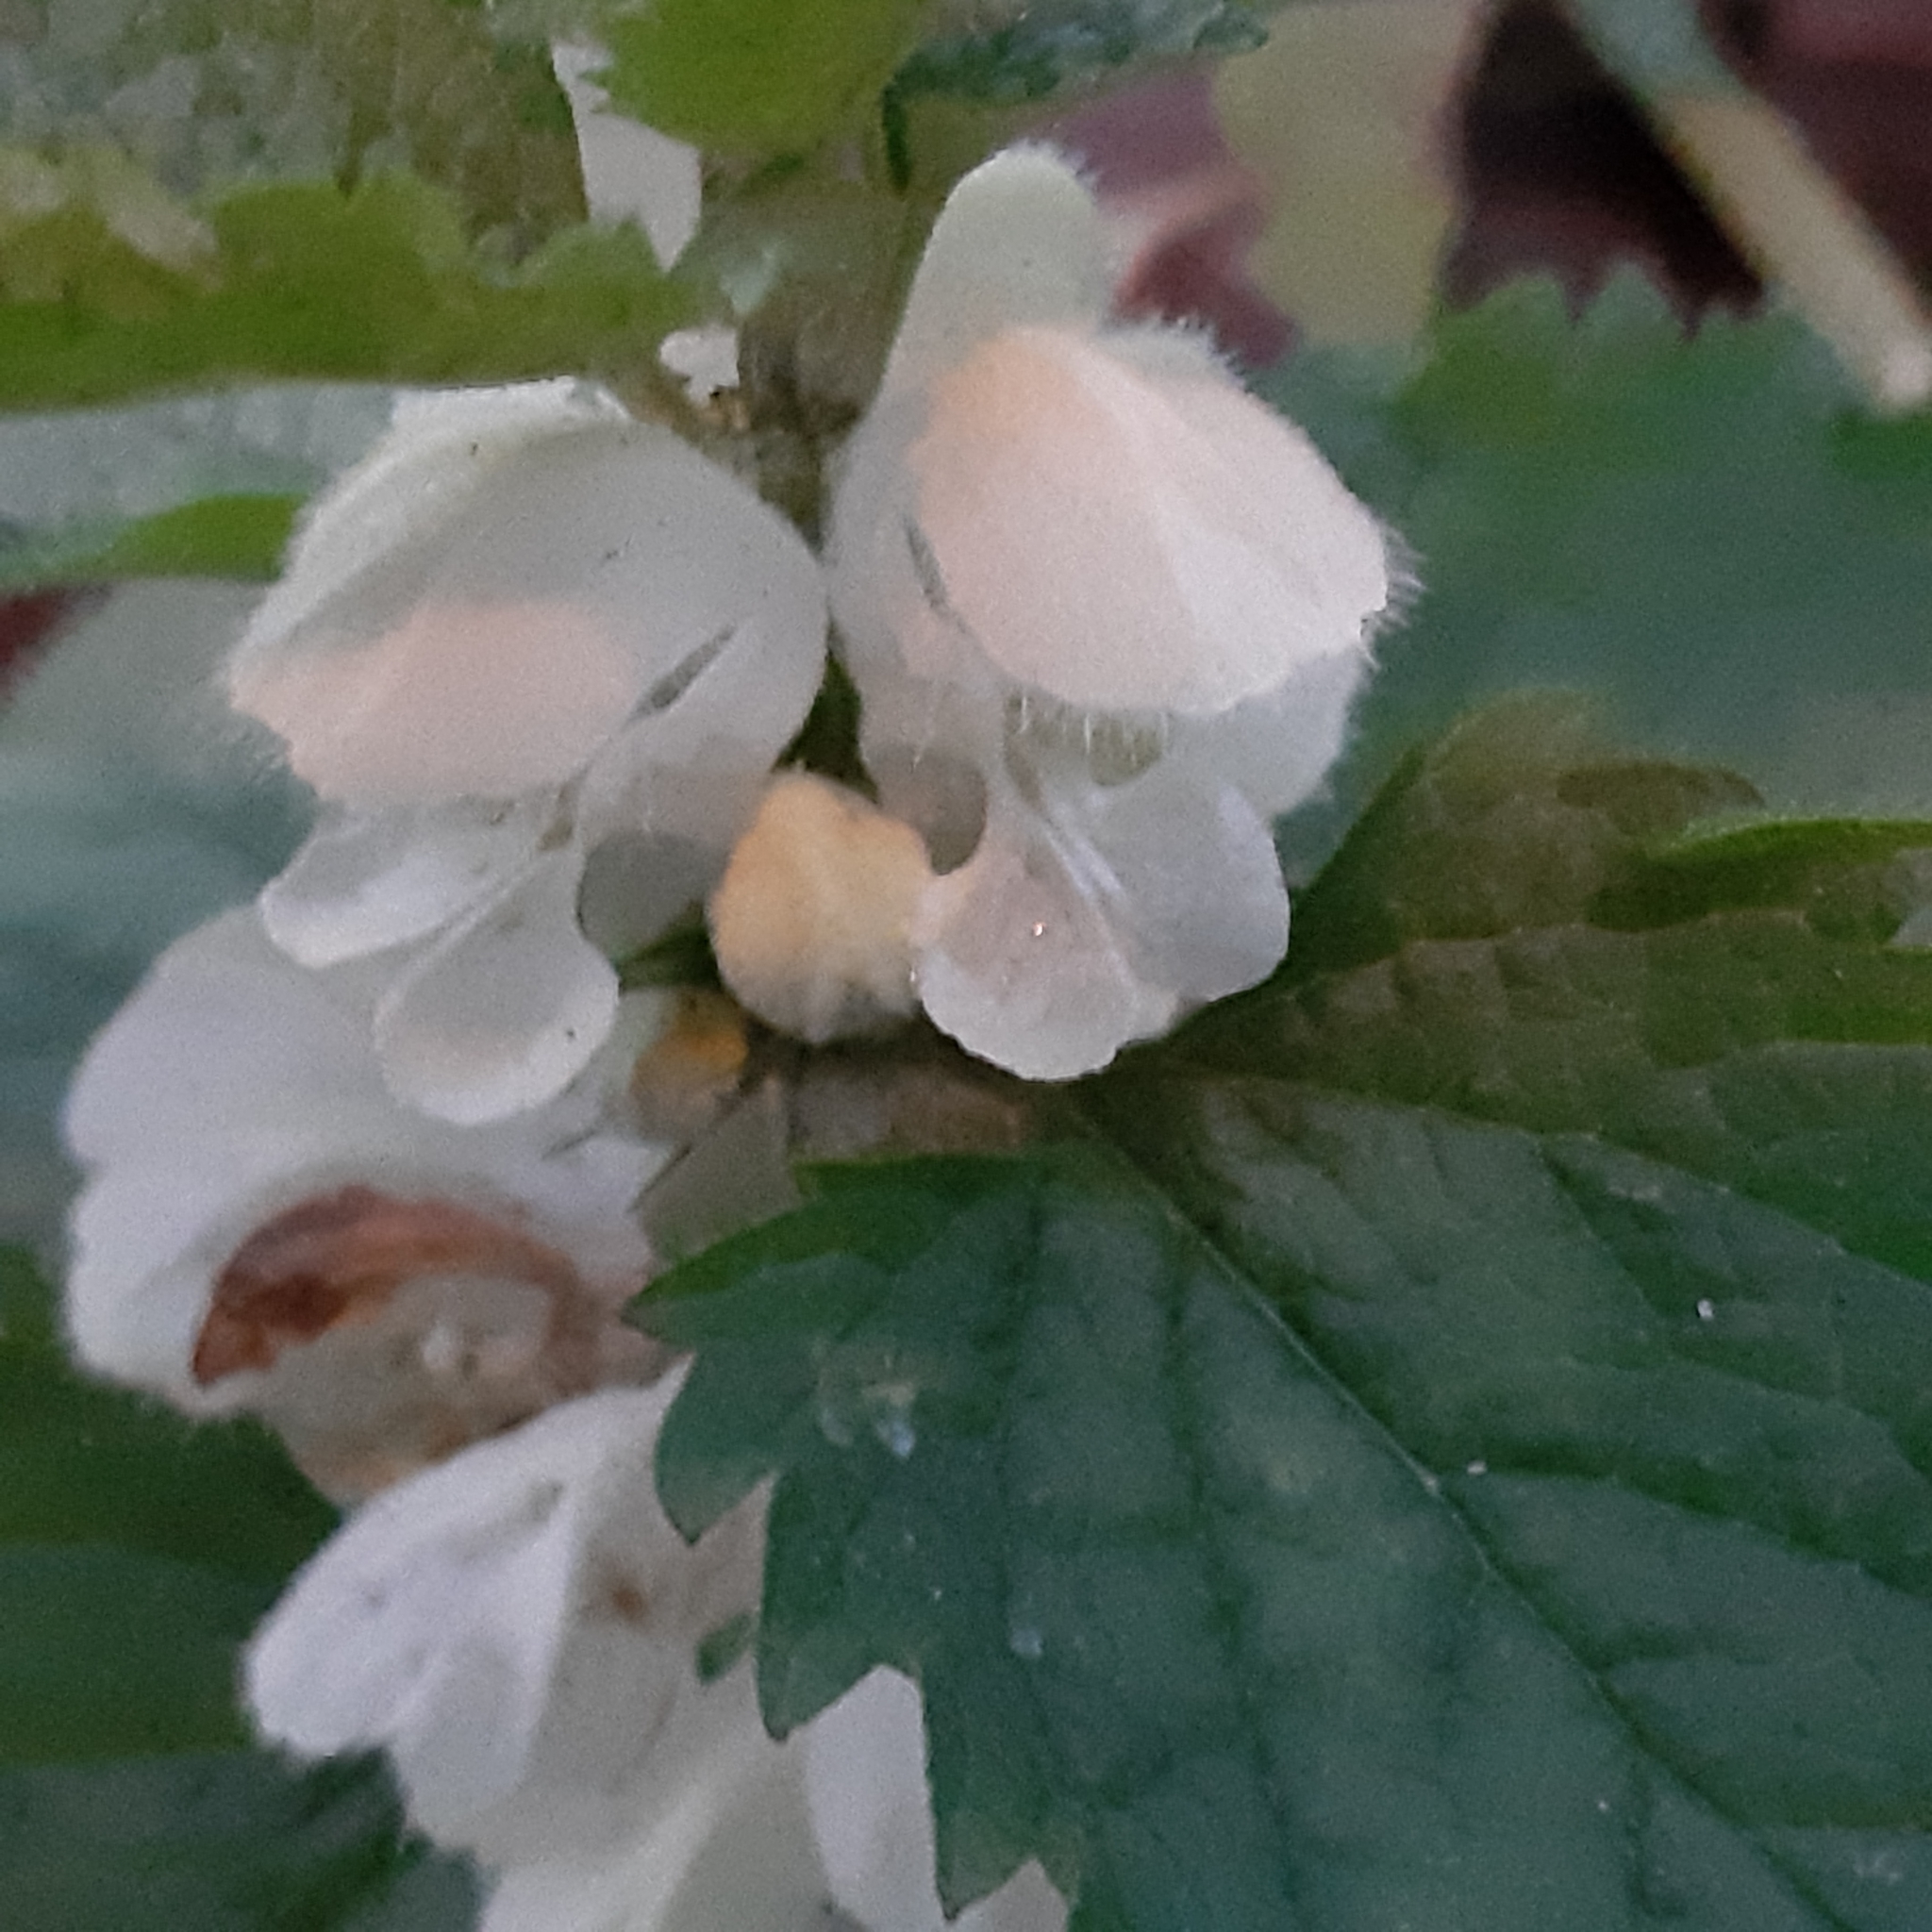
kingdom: Plantae
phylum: Tracheophyta
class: Magnoliopsida
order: Lamiales
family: Lamiaceae
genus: Lamium
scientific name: Lamium album
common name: White dead-nettle
